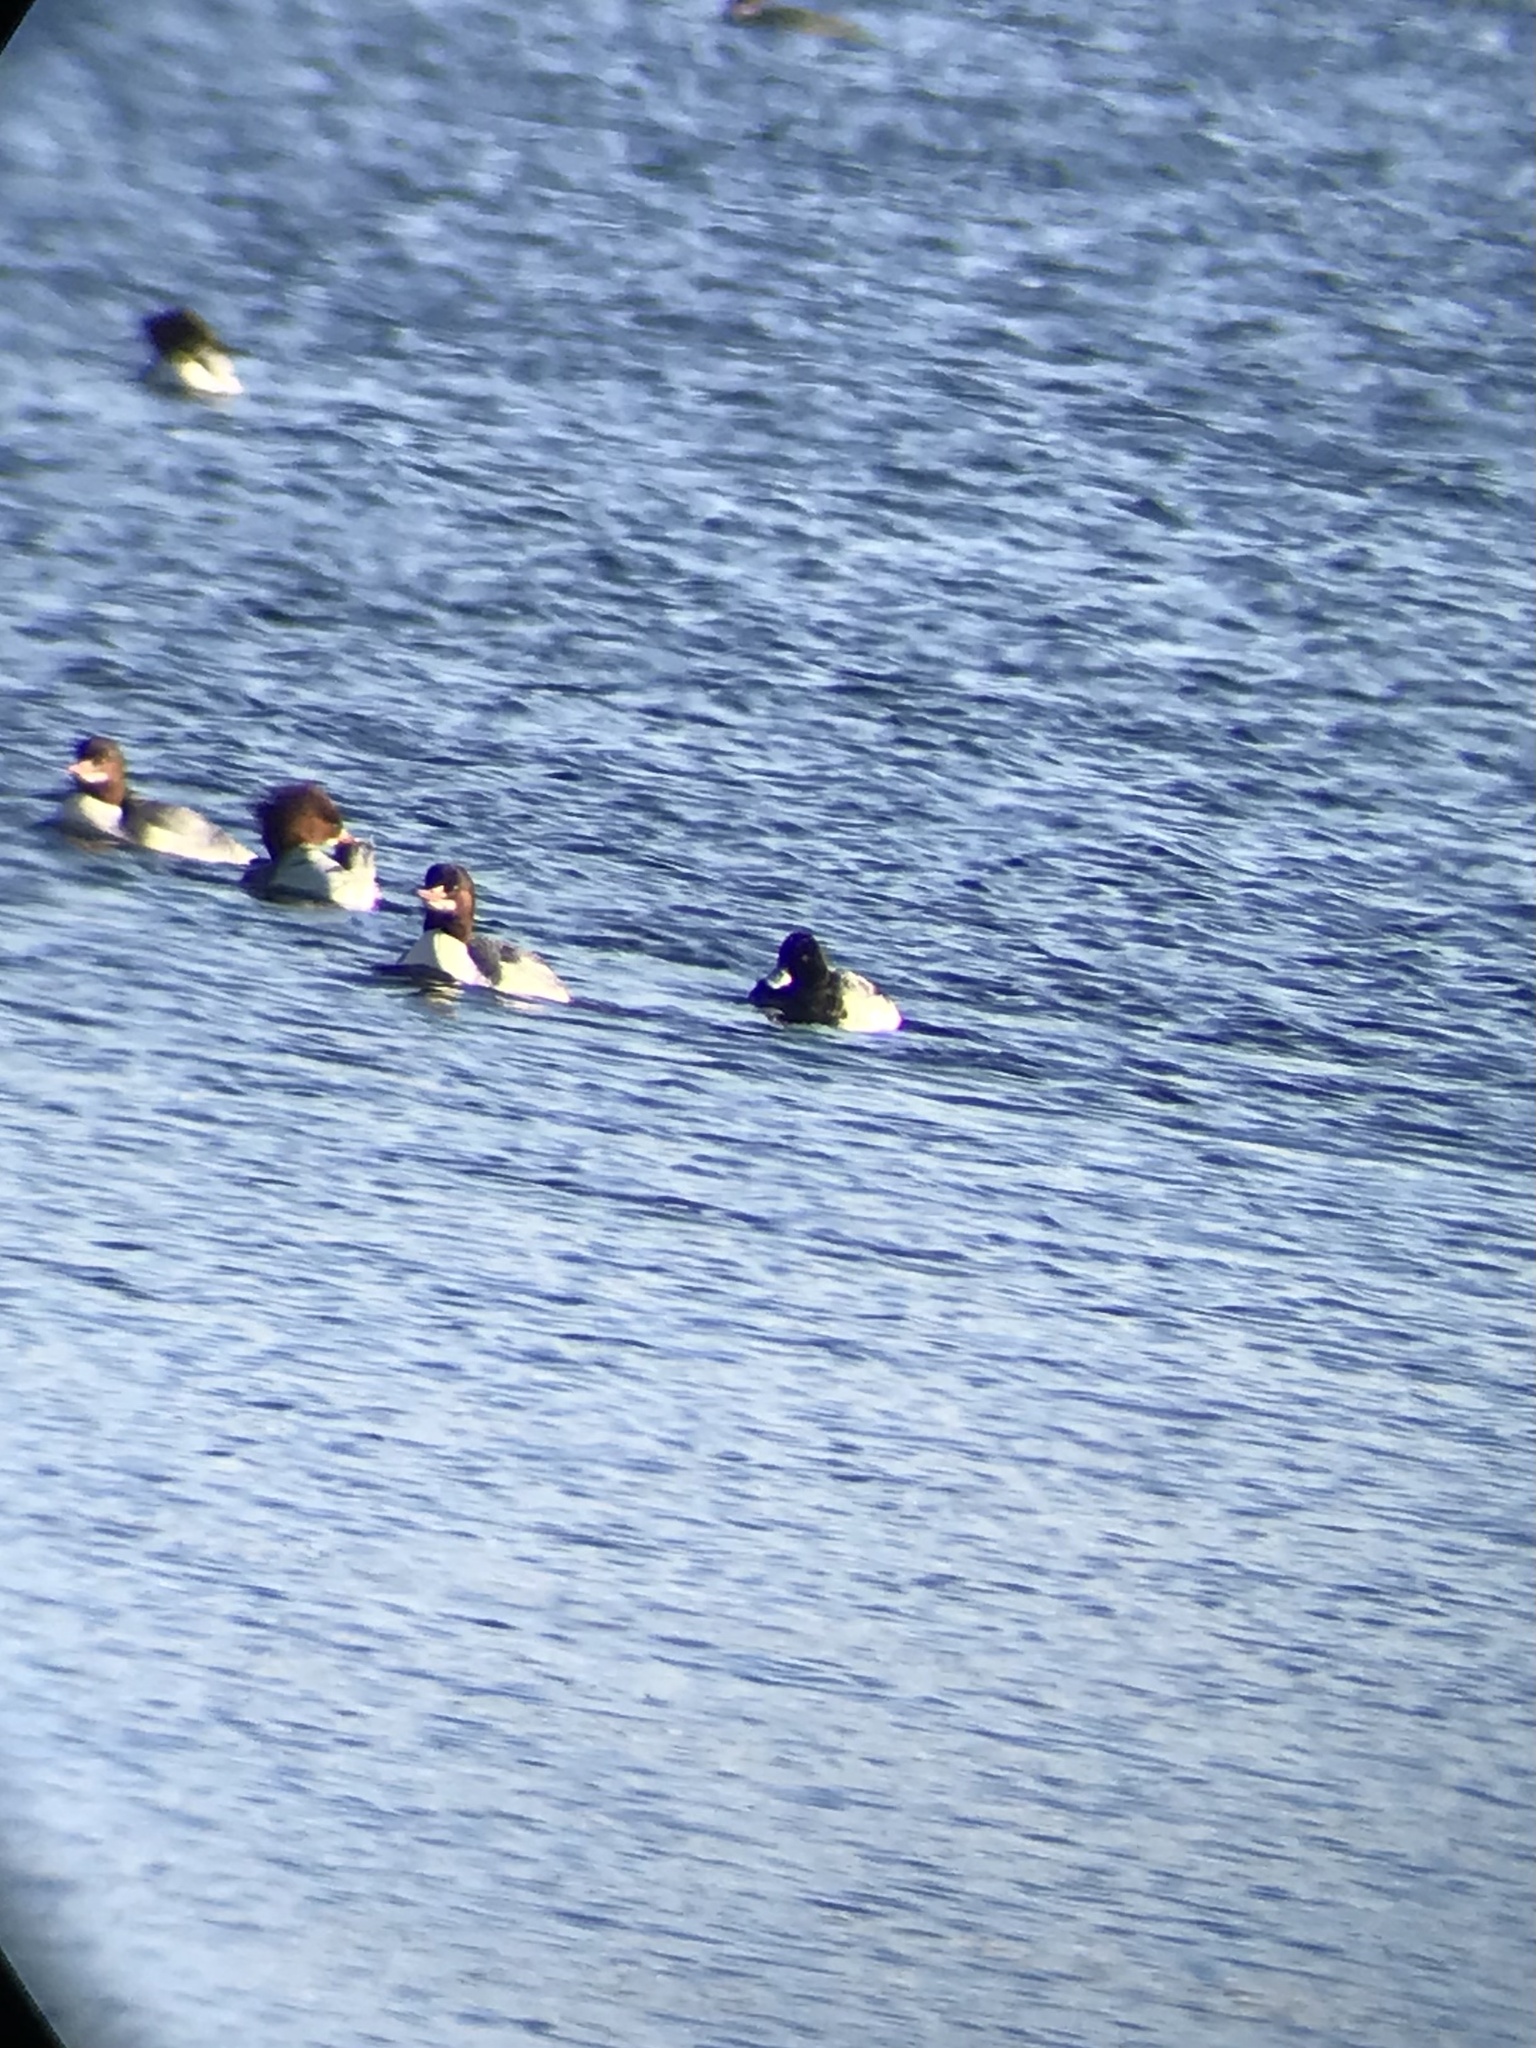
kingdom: Animalia
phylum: Chordata
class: Aves
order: Anseriformes
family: Anatidae
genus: Aythya
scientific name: Aythya affinis
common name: Lesser scaup
